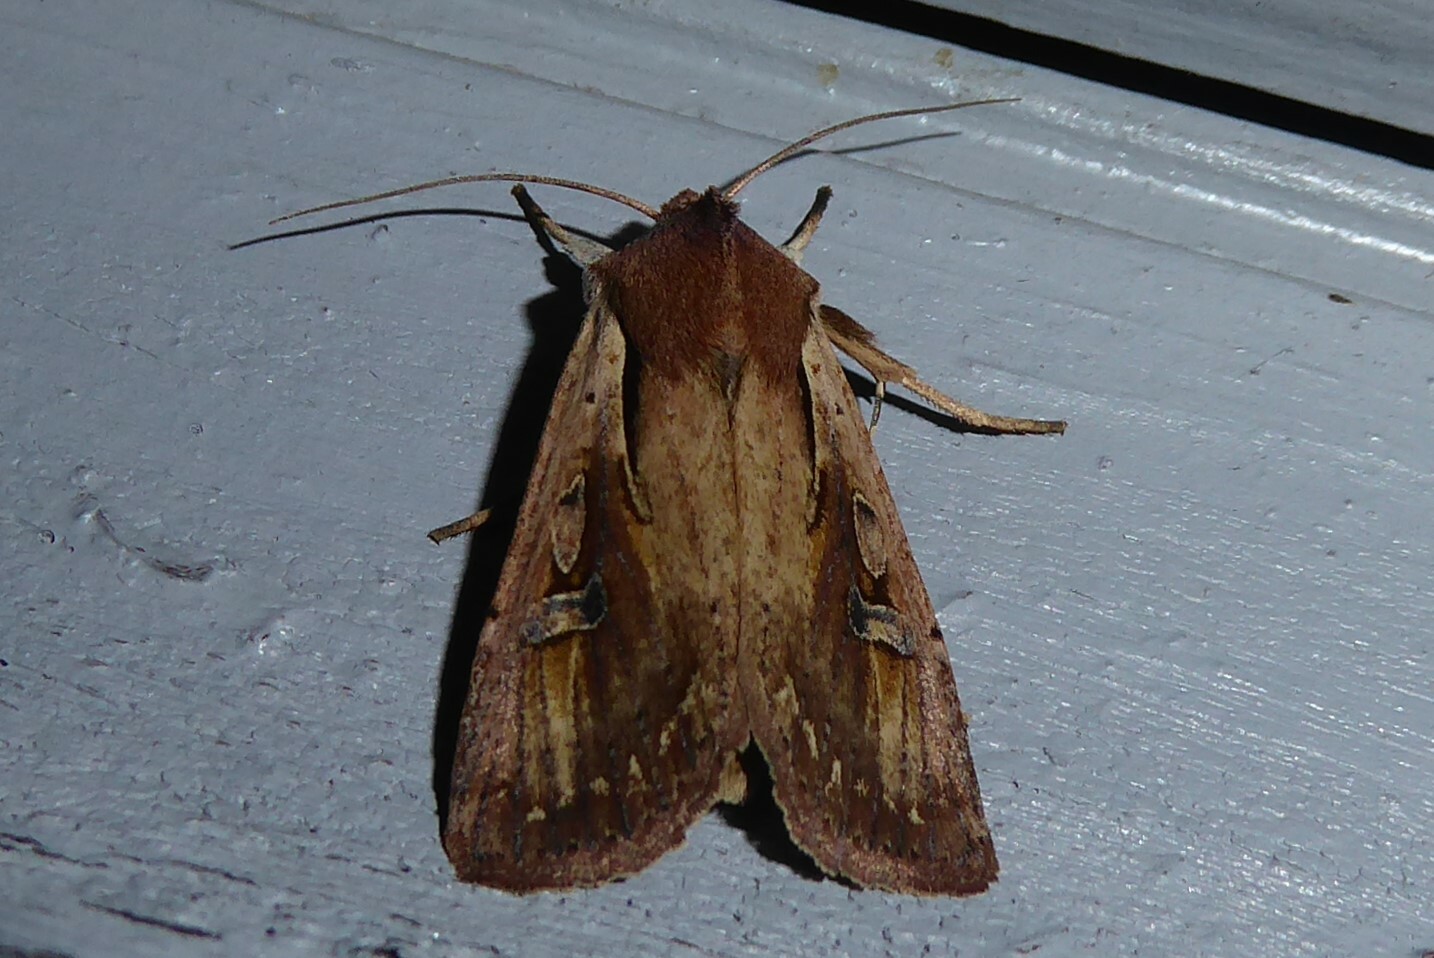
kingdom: Animalia
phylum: Arthropoda
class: Insecta
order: Lepidoptera
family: Noctuidae
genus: Ichneutica
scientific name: Ichneutica atristriga
